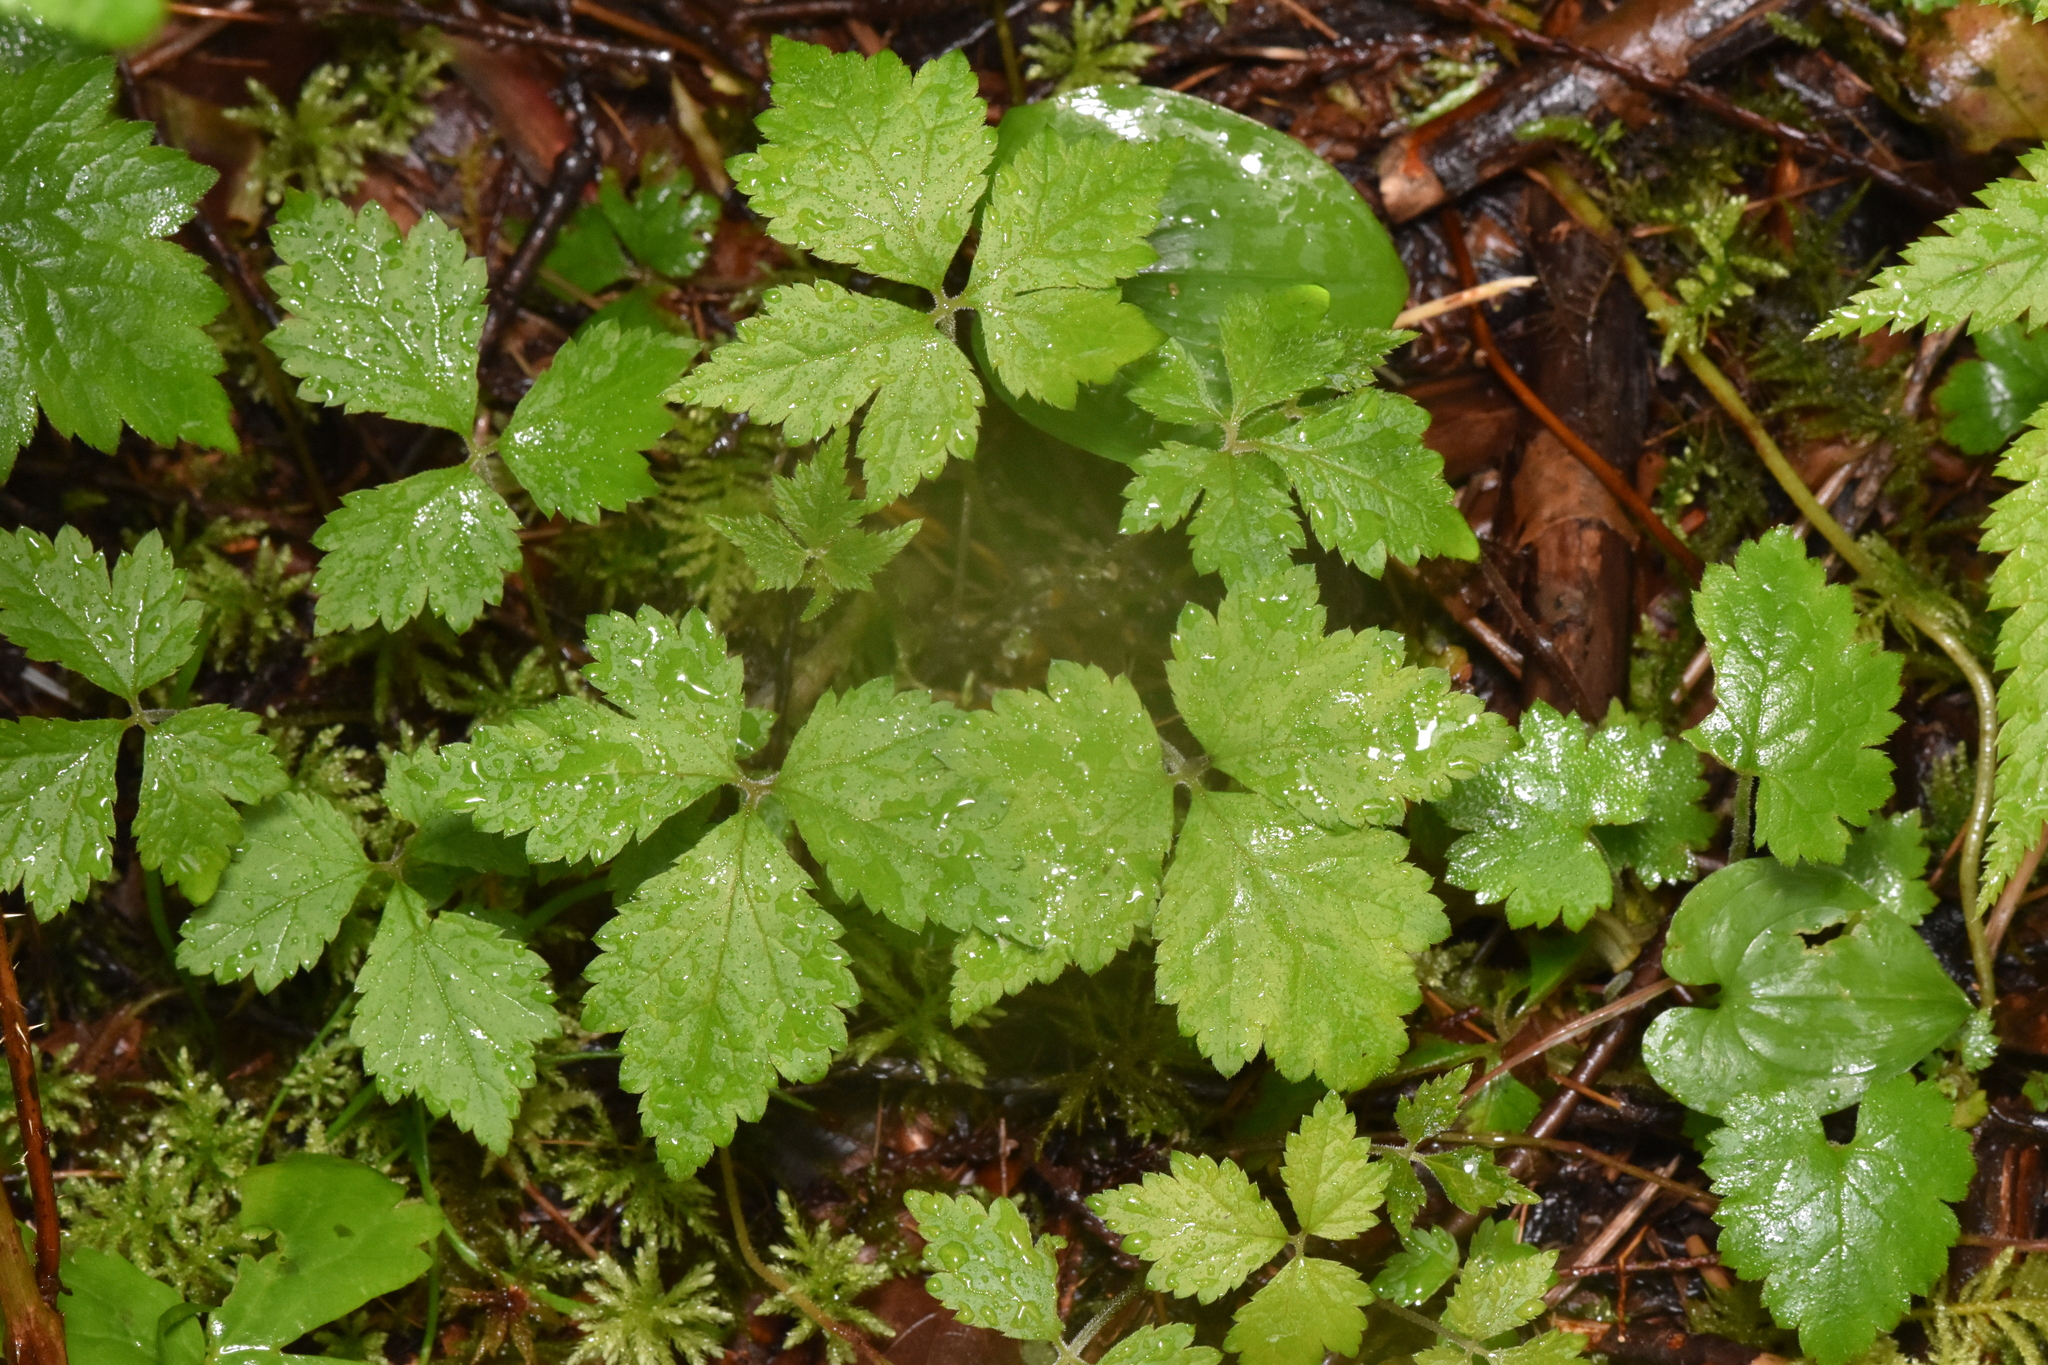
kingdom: Plantae
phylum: Tracheophyta
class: Magnoliopsida
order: Saxifragales
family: Saxifragaceae
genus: Tiarella
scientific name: Tiarella trifoliata
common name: Sugar-scoop
